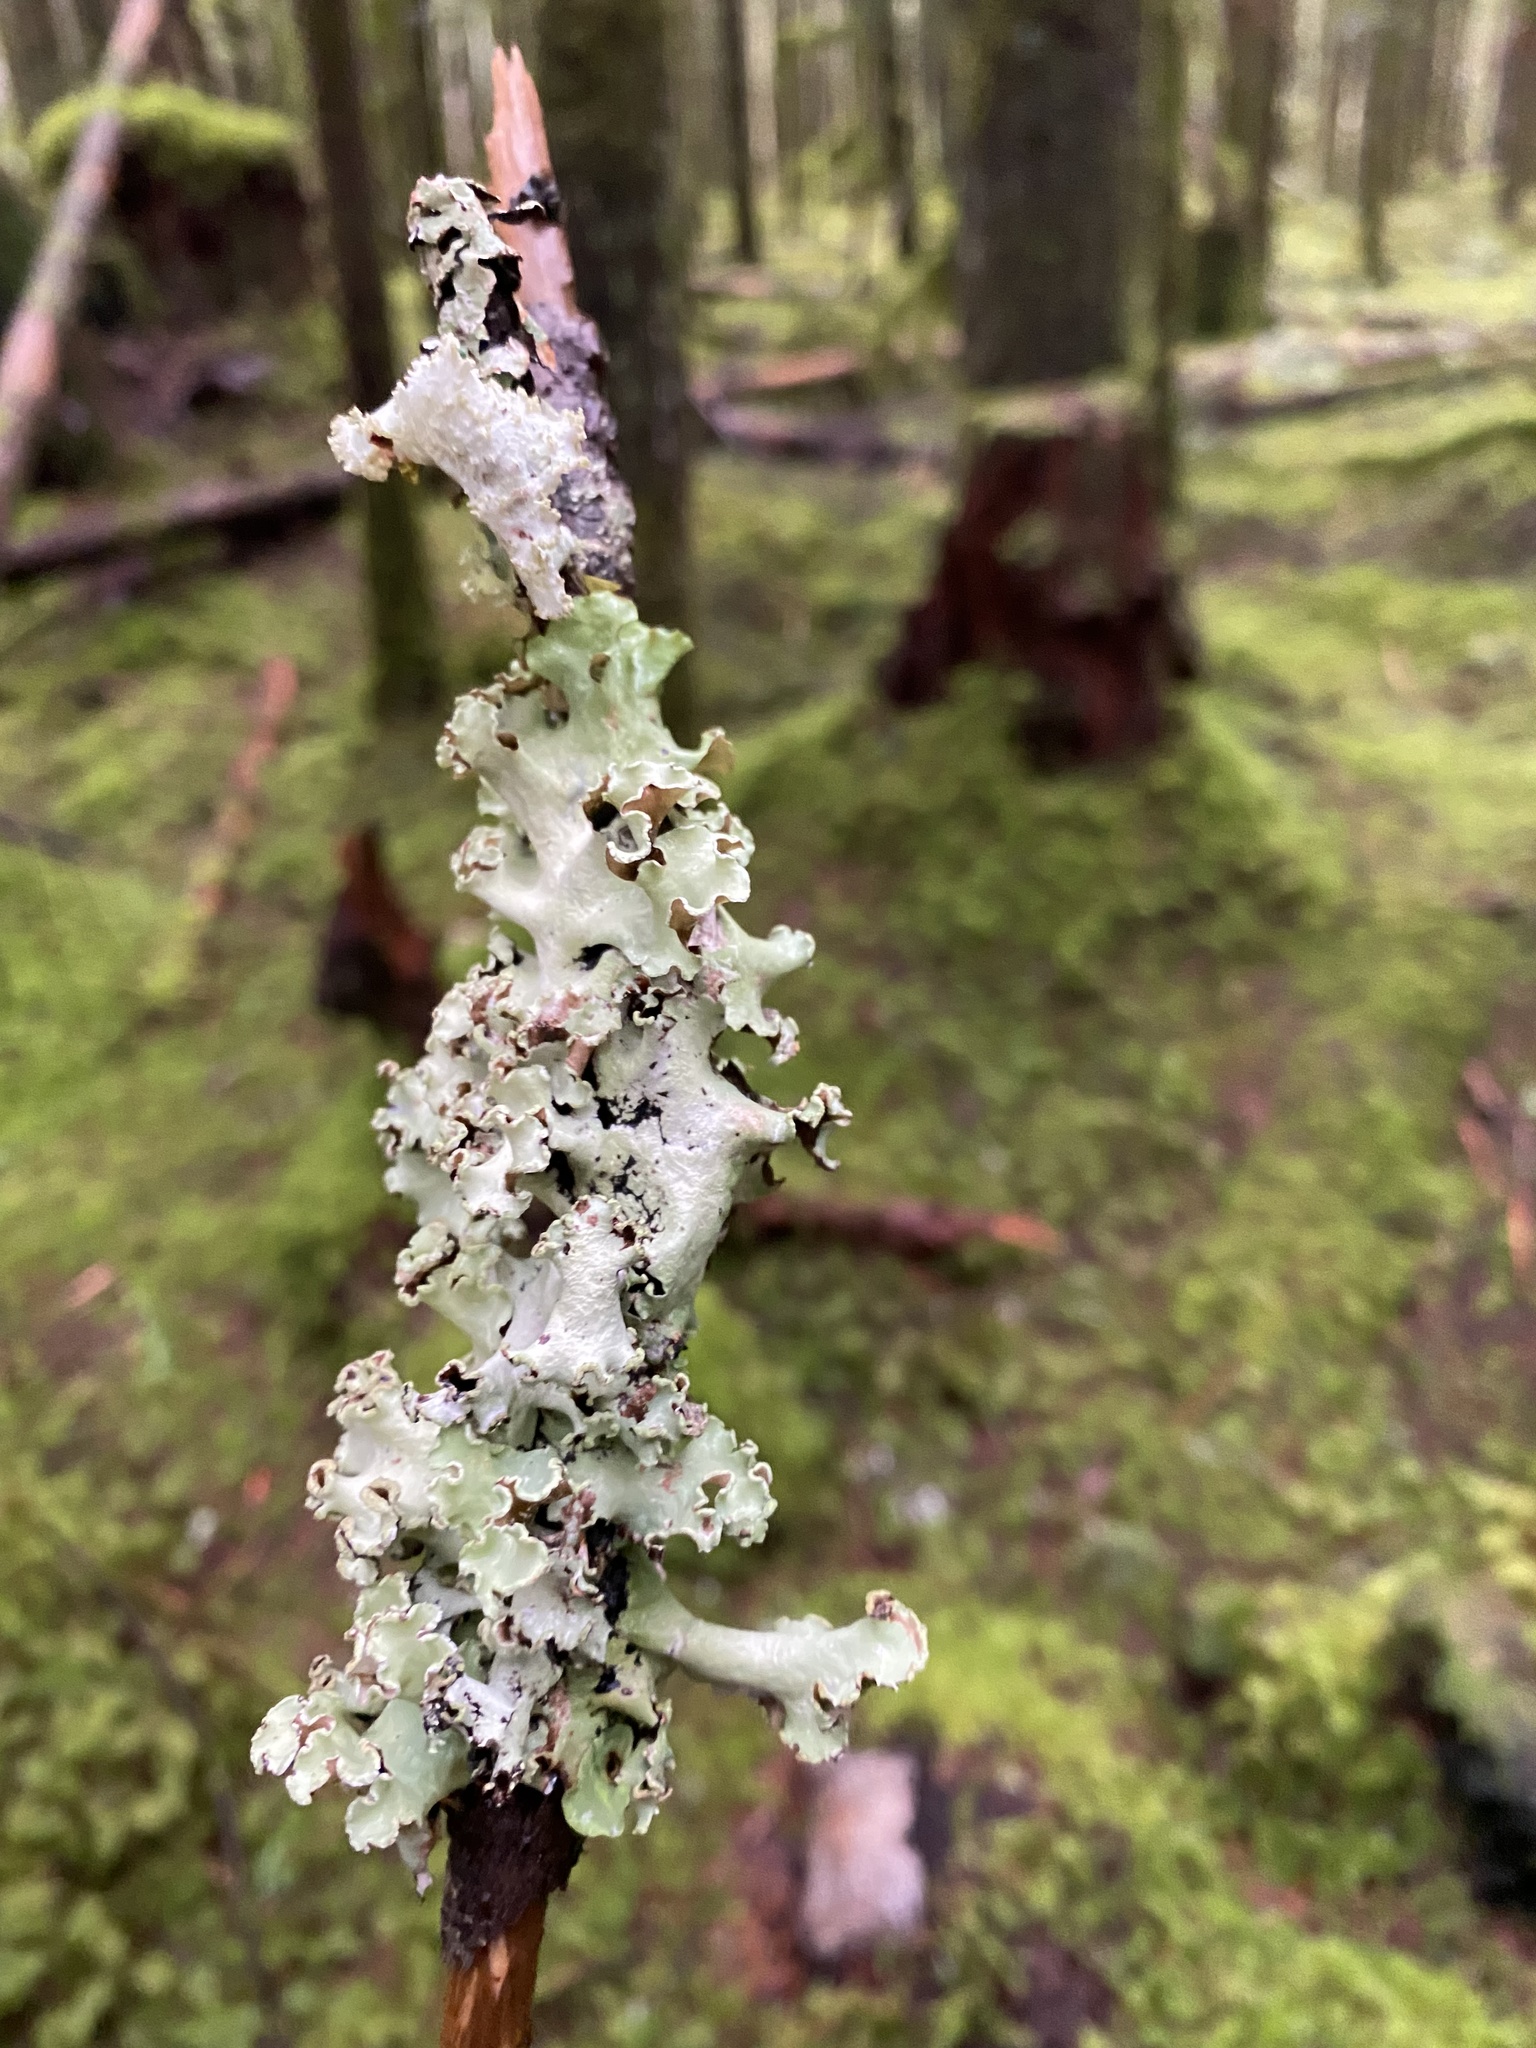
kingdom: Fungi
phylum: Ascomycota
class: Lecanoromycetes
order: Lecanorales
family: Parmeliaceae
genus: Platismatia
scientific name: Platismatia glauca
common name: Varied rag lichen
